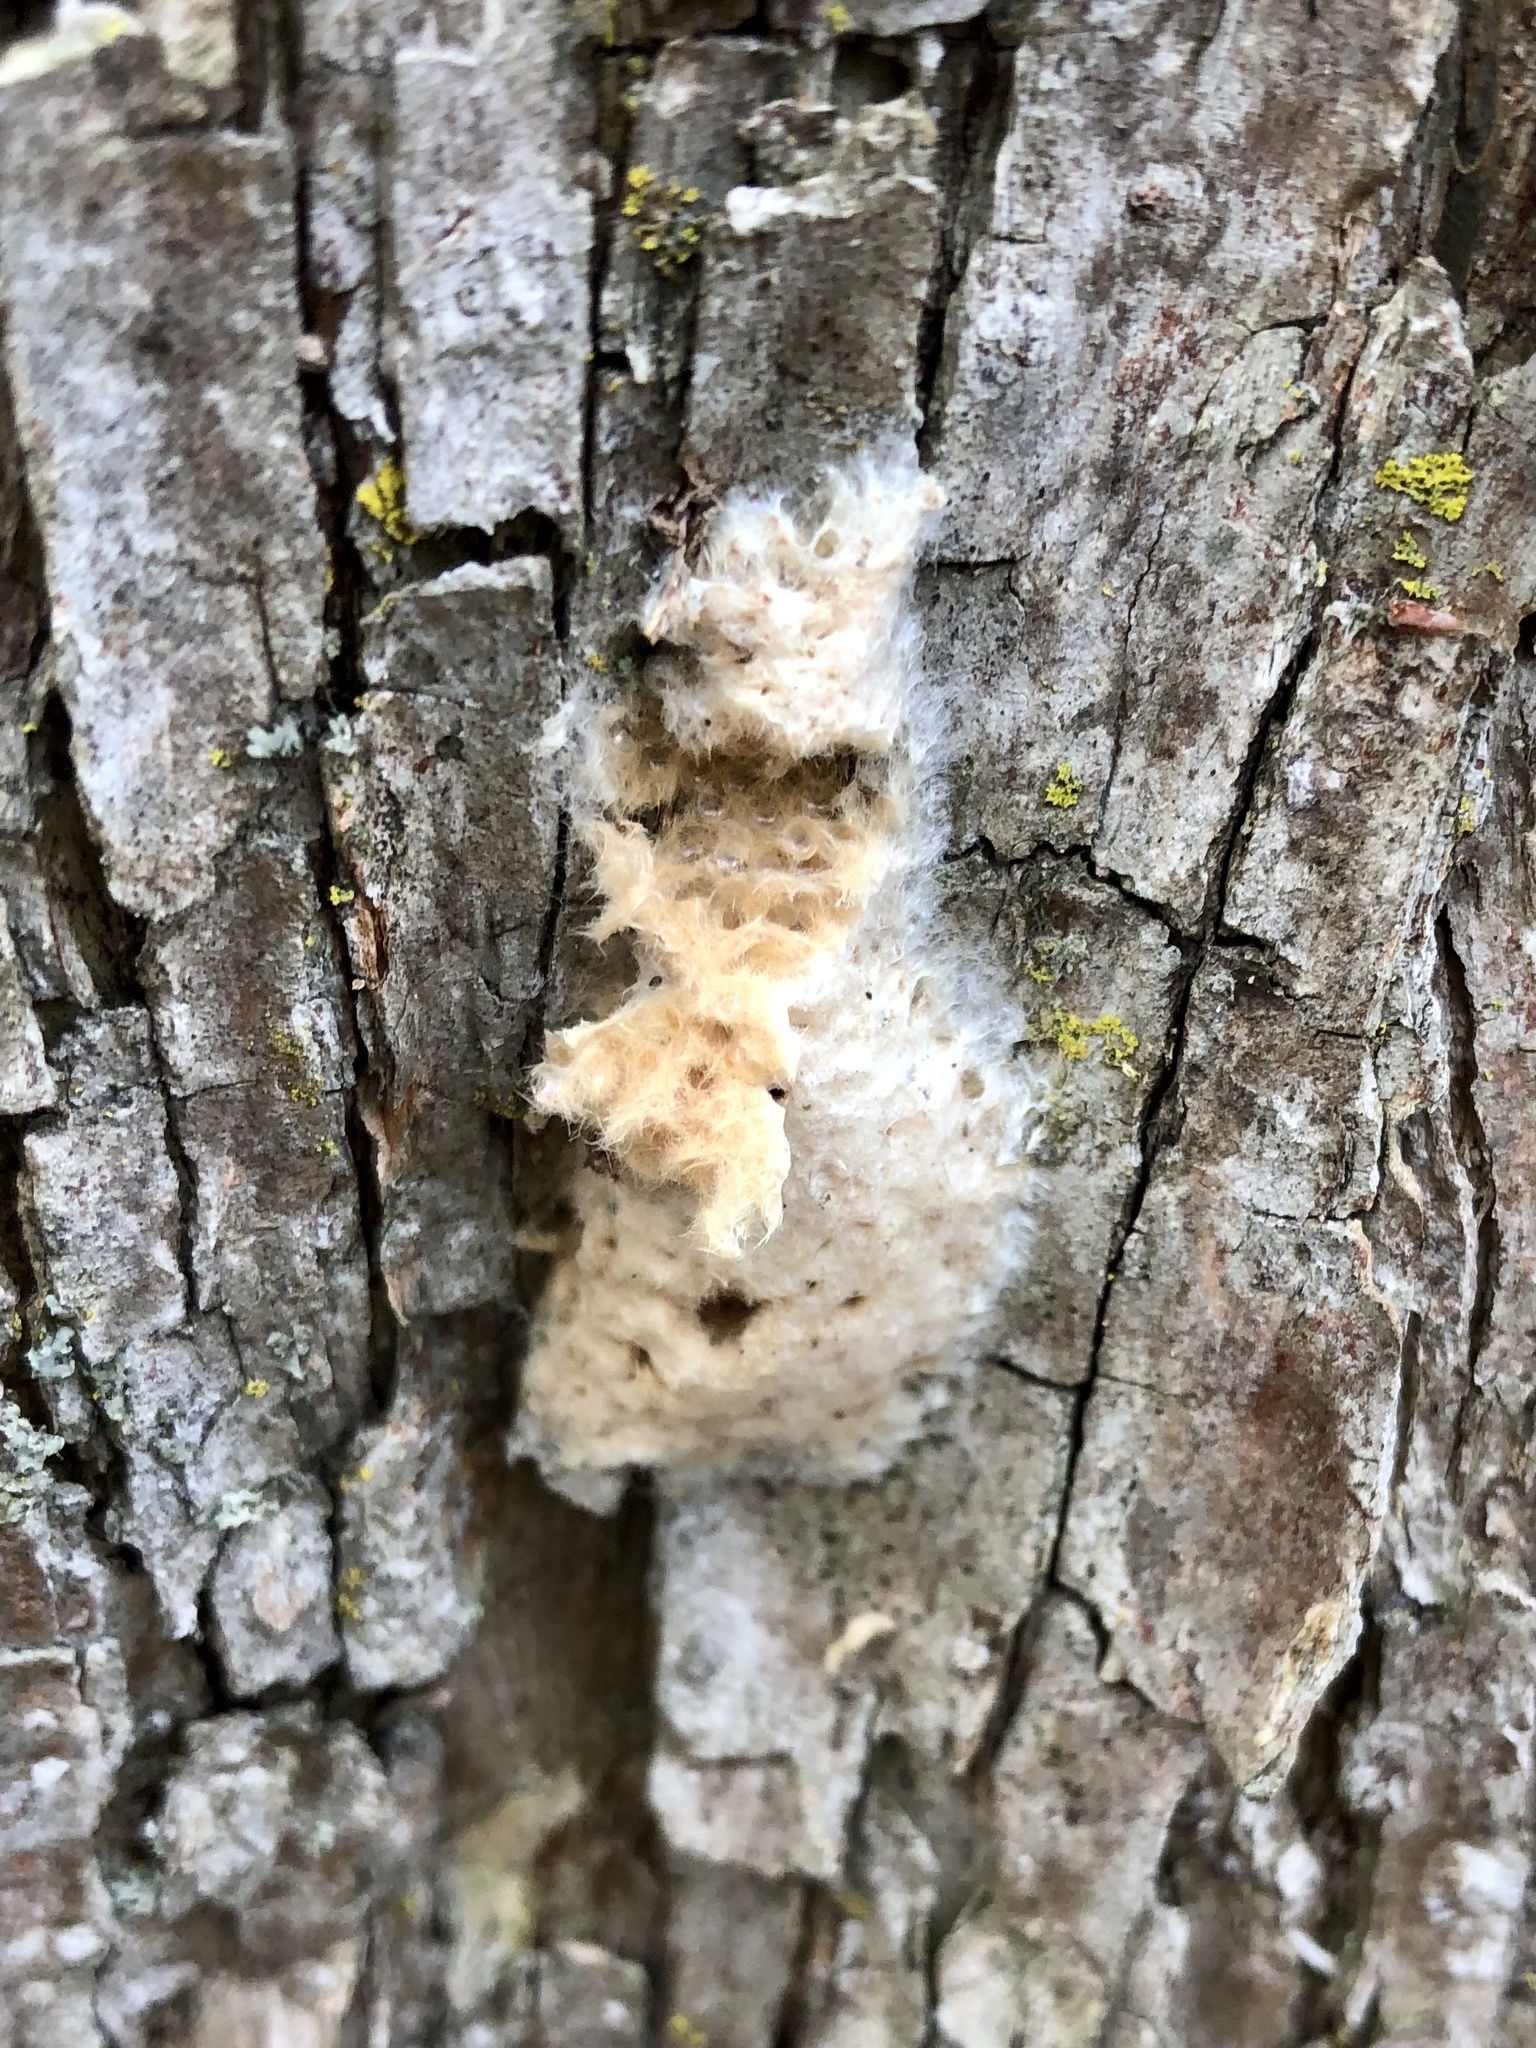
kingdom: Animalia
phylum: Arthropoda
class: Insecta
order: Lepidoptera
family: Erebidae
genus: Lymantria
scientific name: Lymantria dispar
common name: Gypsy moth
